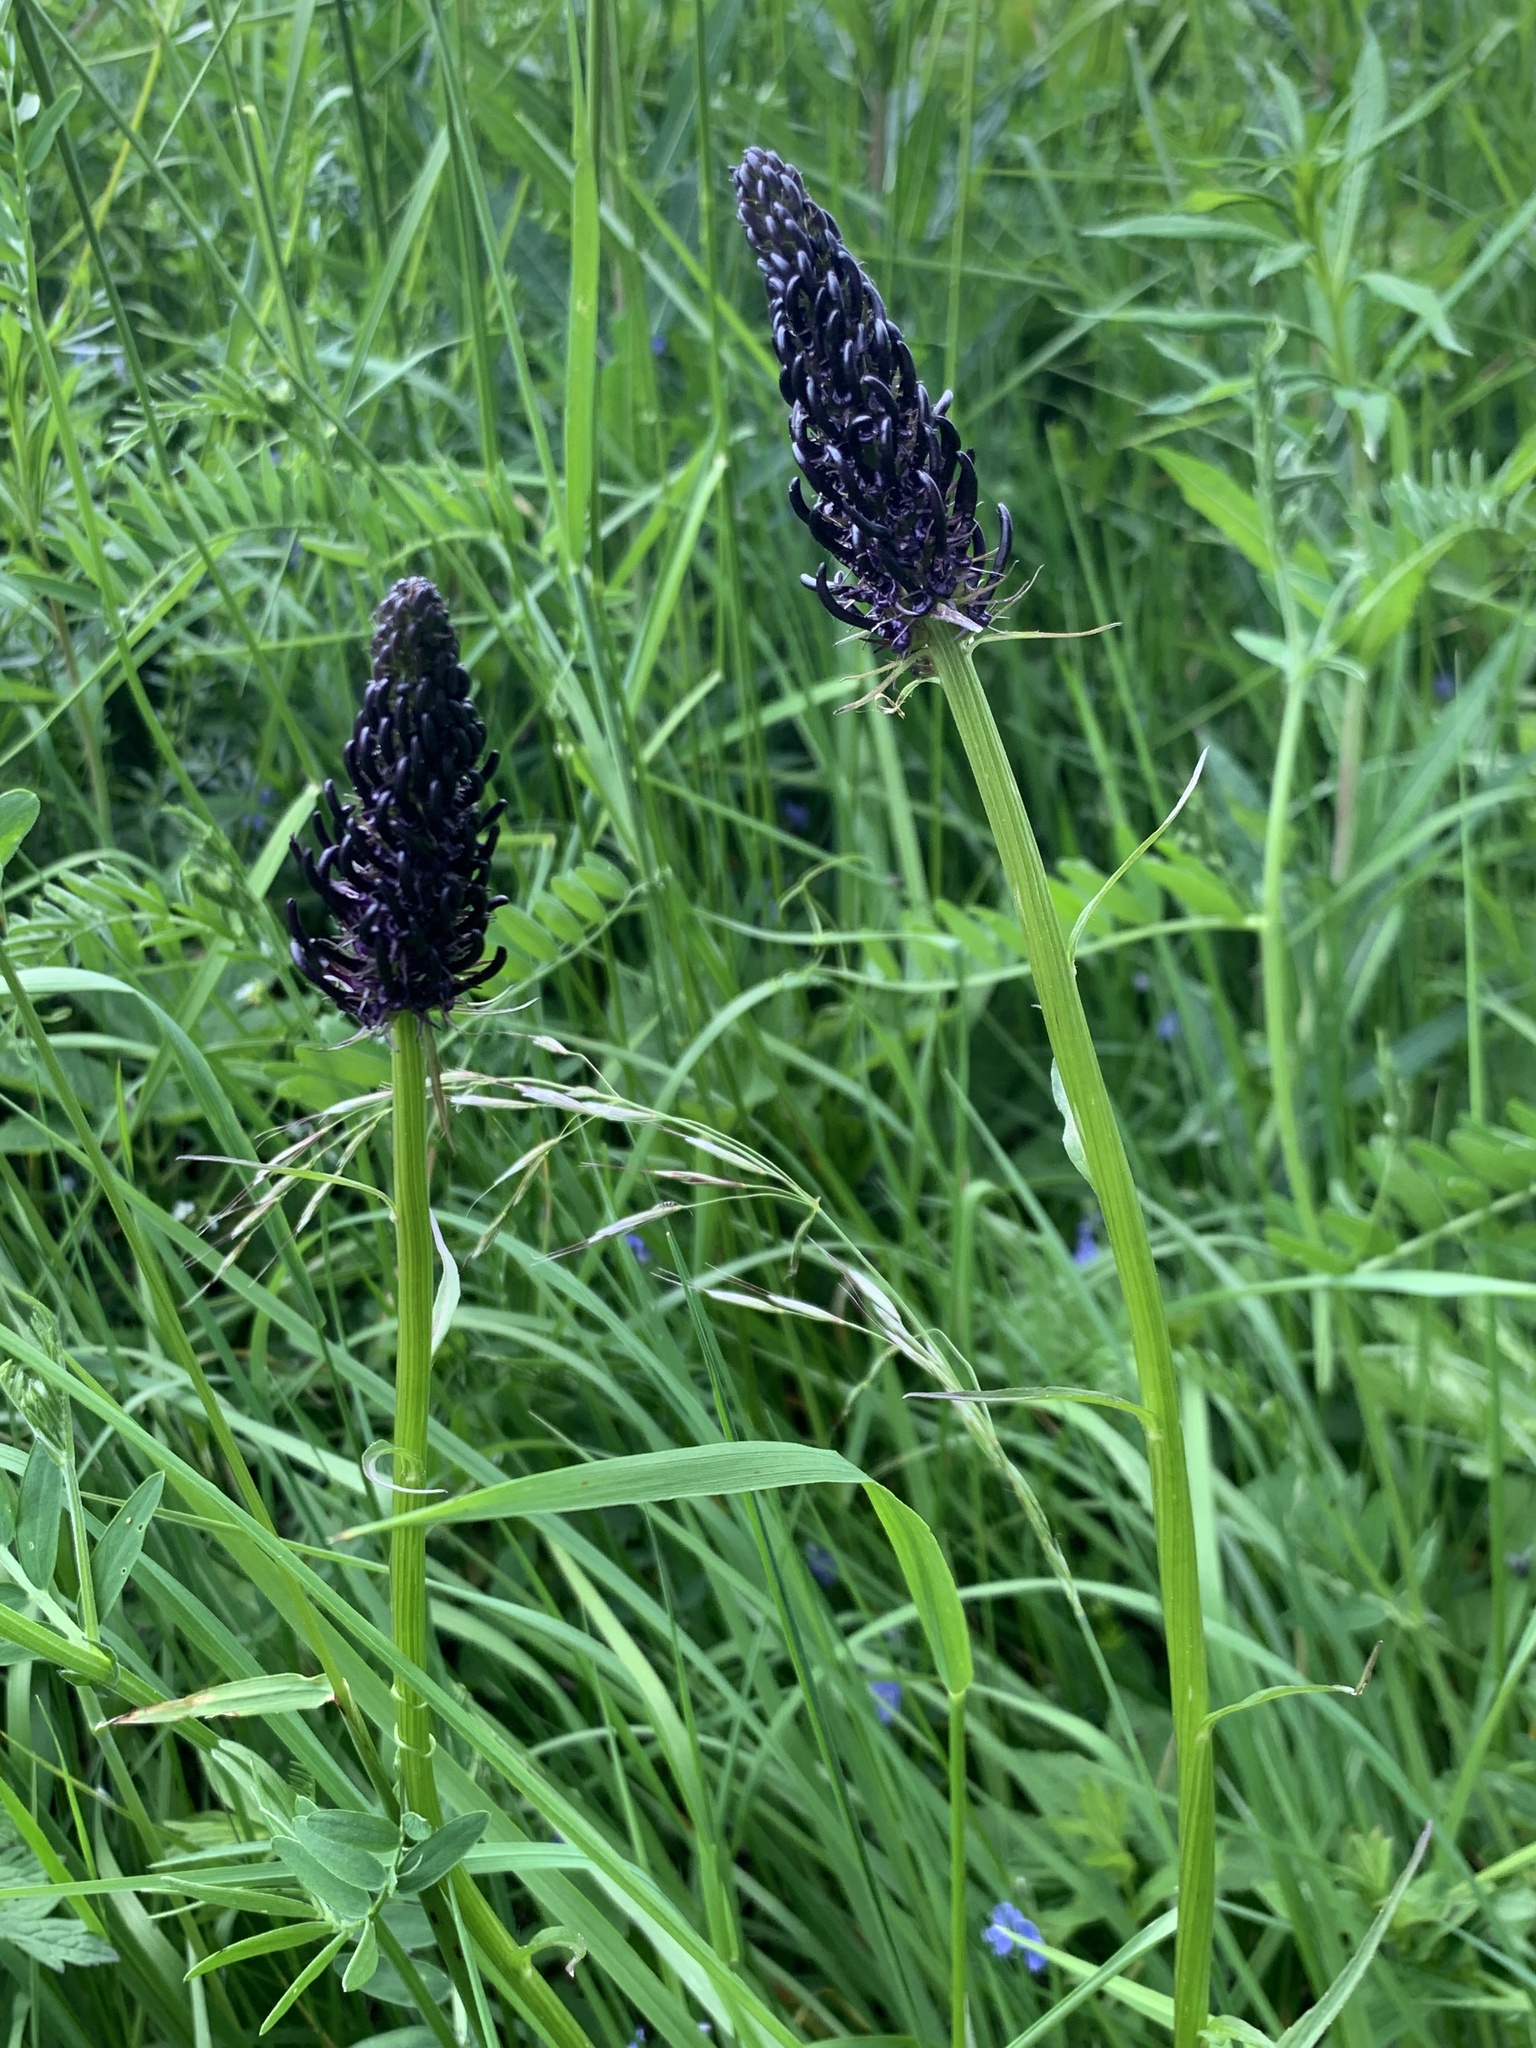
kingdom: Plantae
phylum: Tracheophyta
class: Magnoliopsida
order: Asterales
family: Campanulaceae
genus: Phyteuma
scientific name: Phyteuma nigrum
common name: Black rampion
